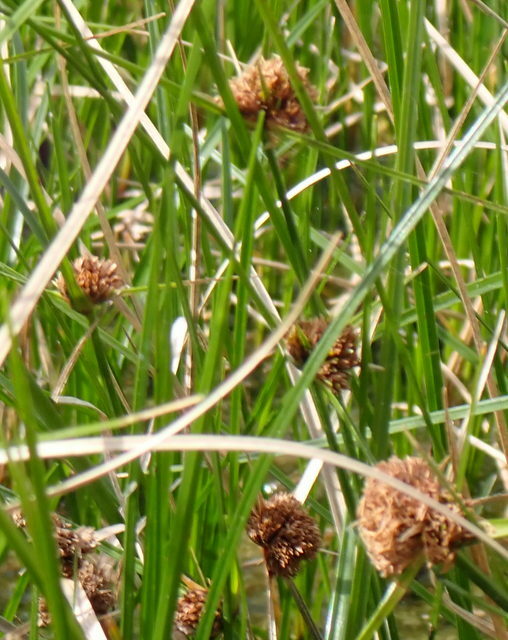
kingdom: Plantae
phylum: Tracheophyta
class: Liliopsida
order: Poales
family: Cyperaceae
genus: Cyperus
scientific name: Cyperus blepharoleptos
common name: Cuban bulrush
